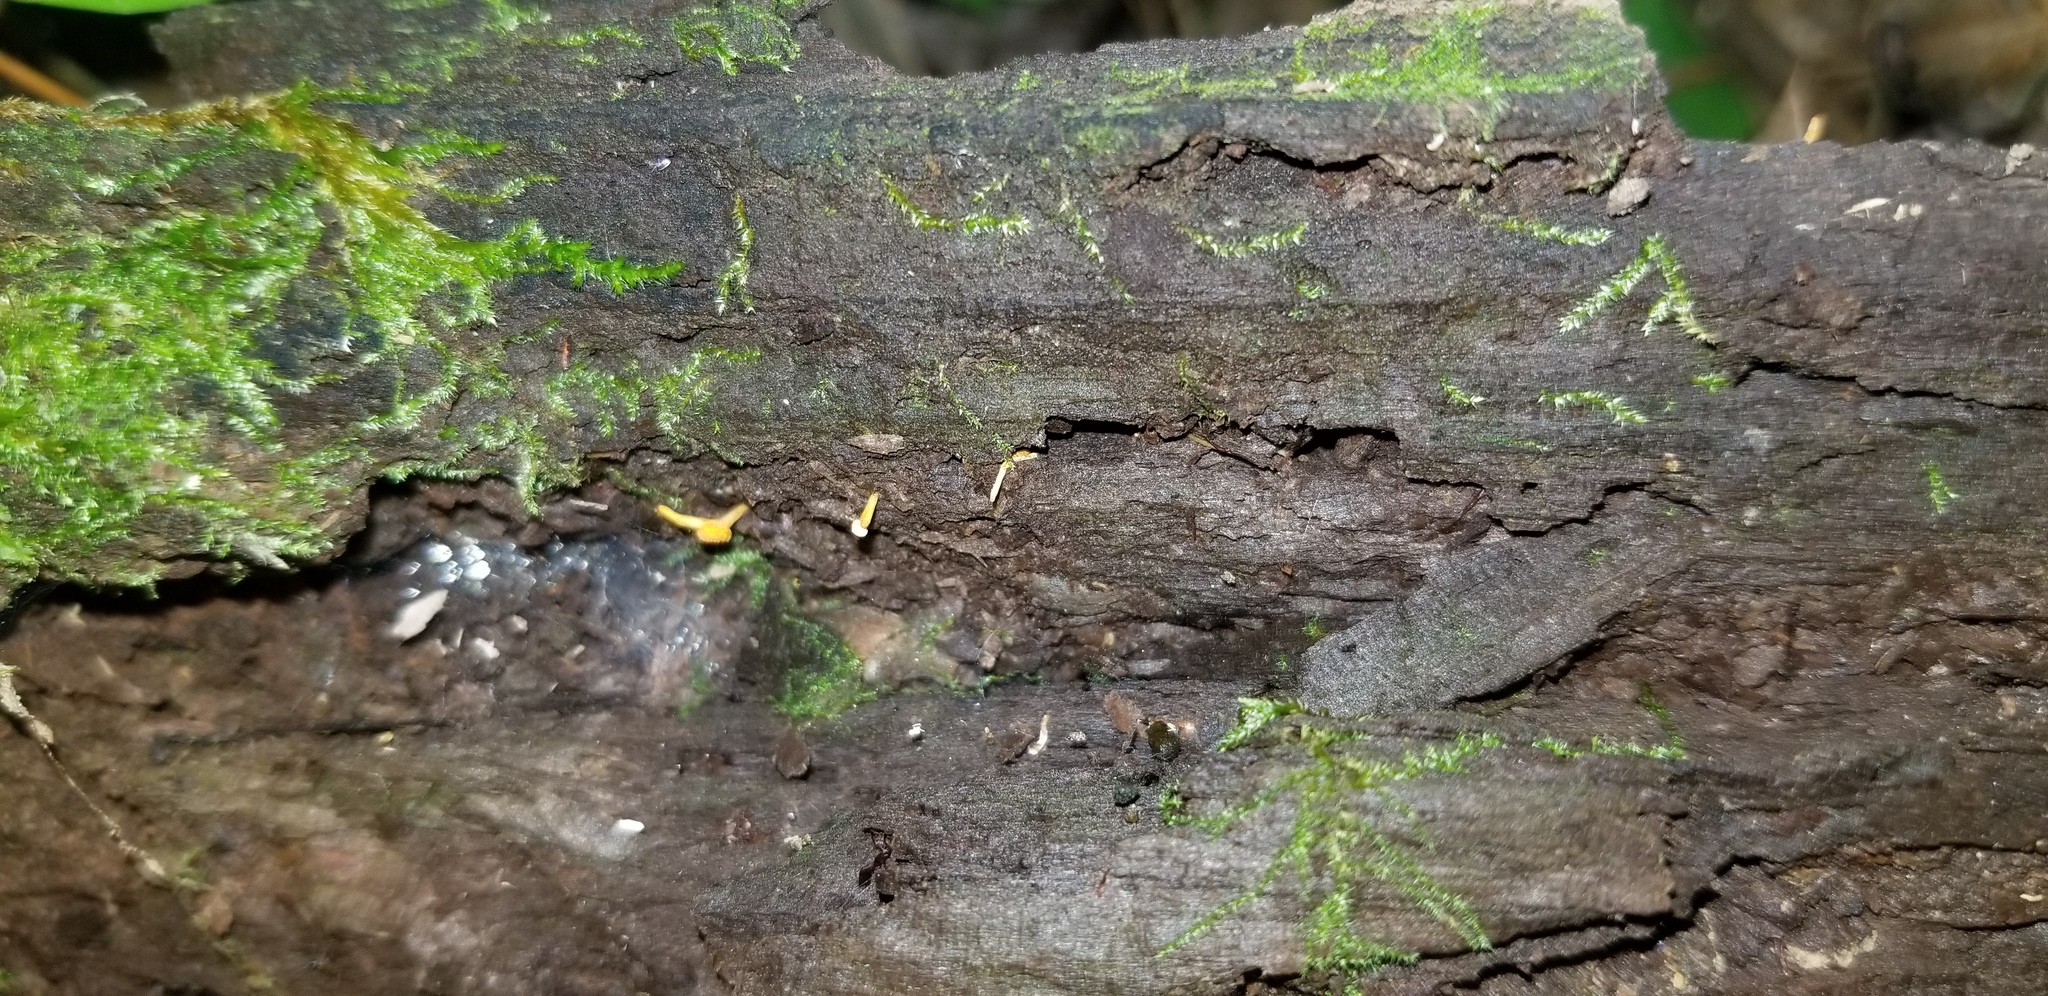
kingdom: Fungi
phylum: Ascomycota
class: Sordariomycetes
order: Hypocreales
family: Ophiocordycipitaceae
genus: Ophiocordyceps
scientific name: Ophiocordyceps variabilis
